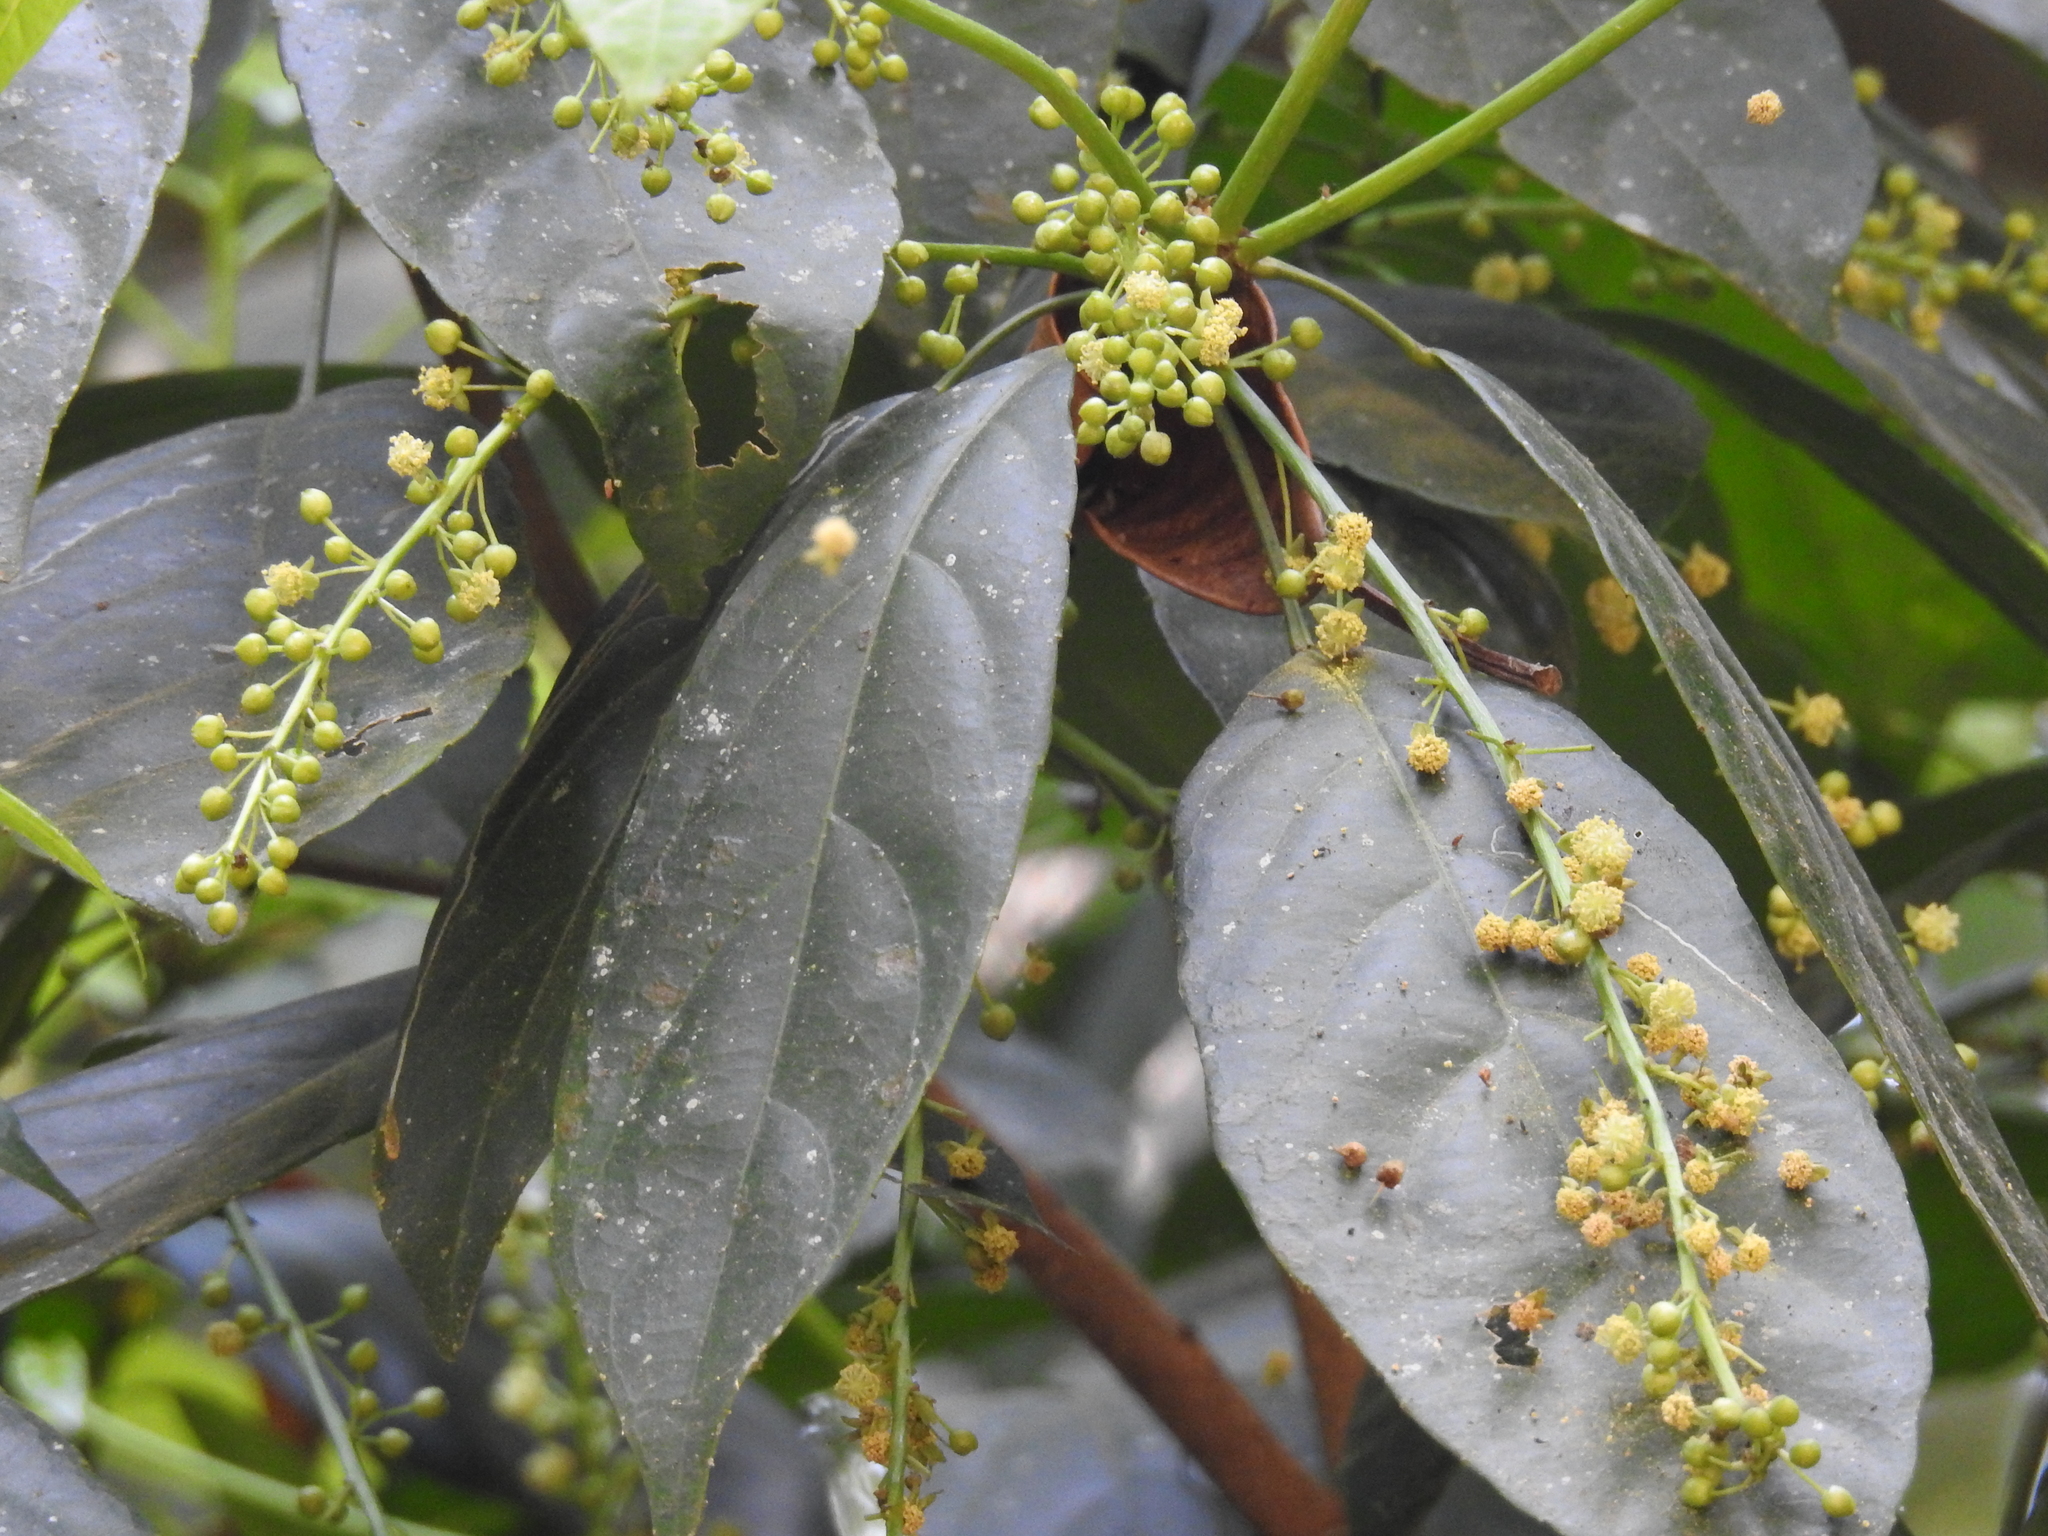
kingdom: Plantae
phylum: Tracheophyta
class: Magnoliopsida
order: Malpighiales
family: Euphorbiaceae
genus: Acalypha
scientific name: Acalypha spiciflora
